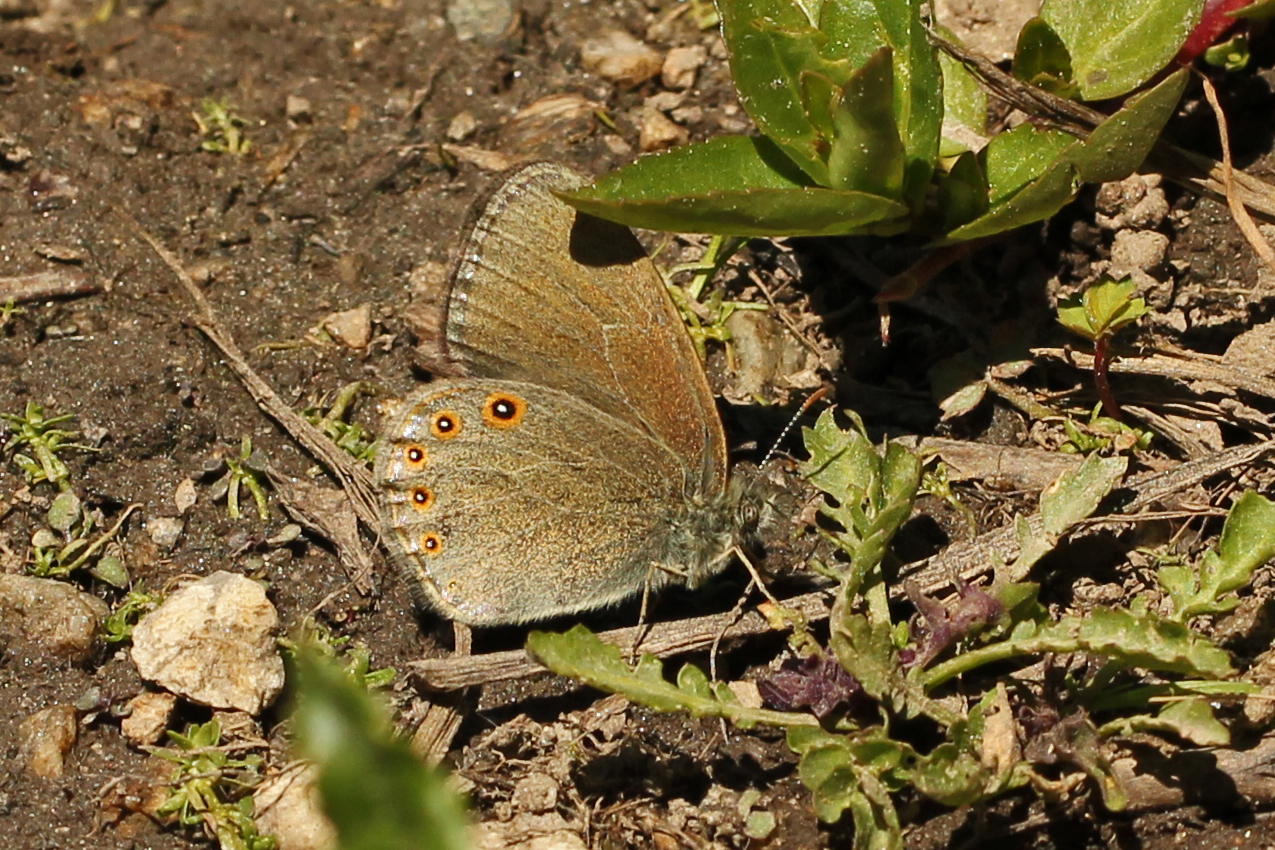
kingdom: Animalia
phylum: Arthropoda
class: Insecta
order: Lepidoptera
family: Nymphalidae
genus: Coenonympha
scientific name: Coenonympha haydeni
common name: Hayden's ringlet
